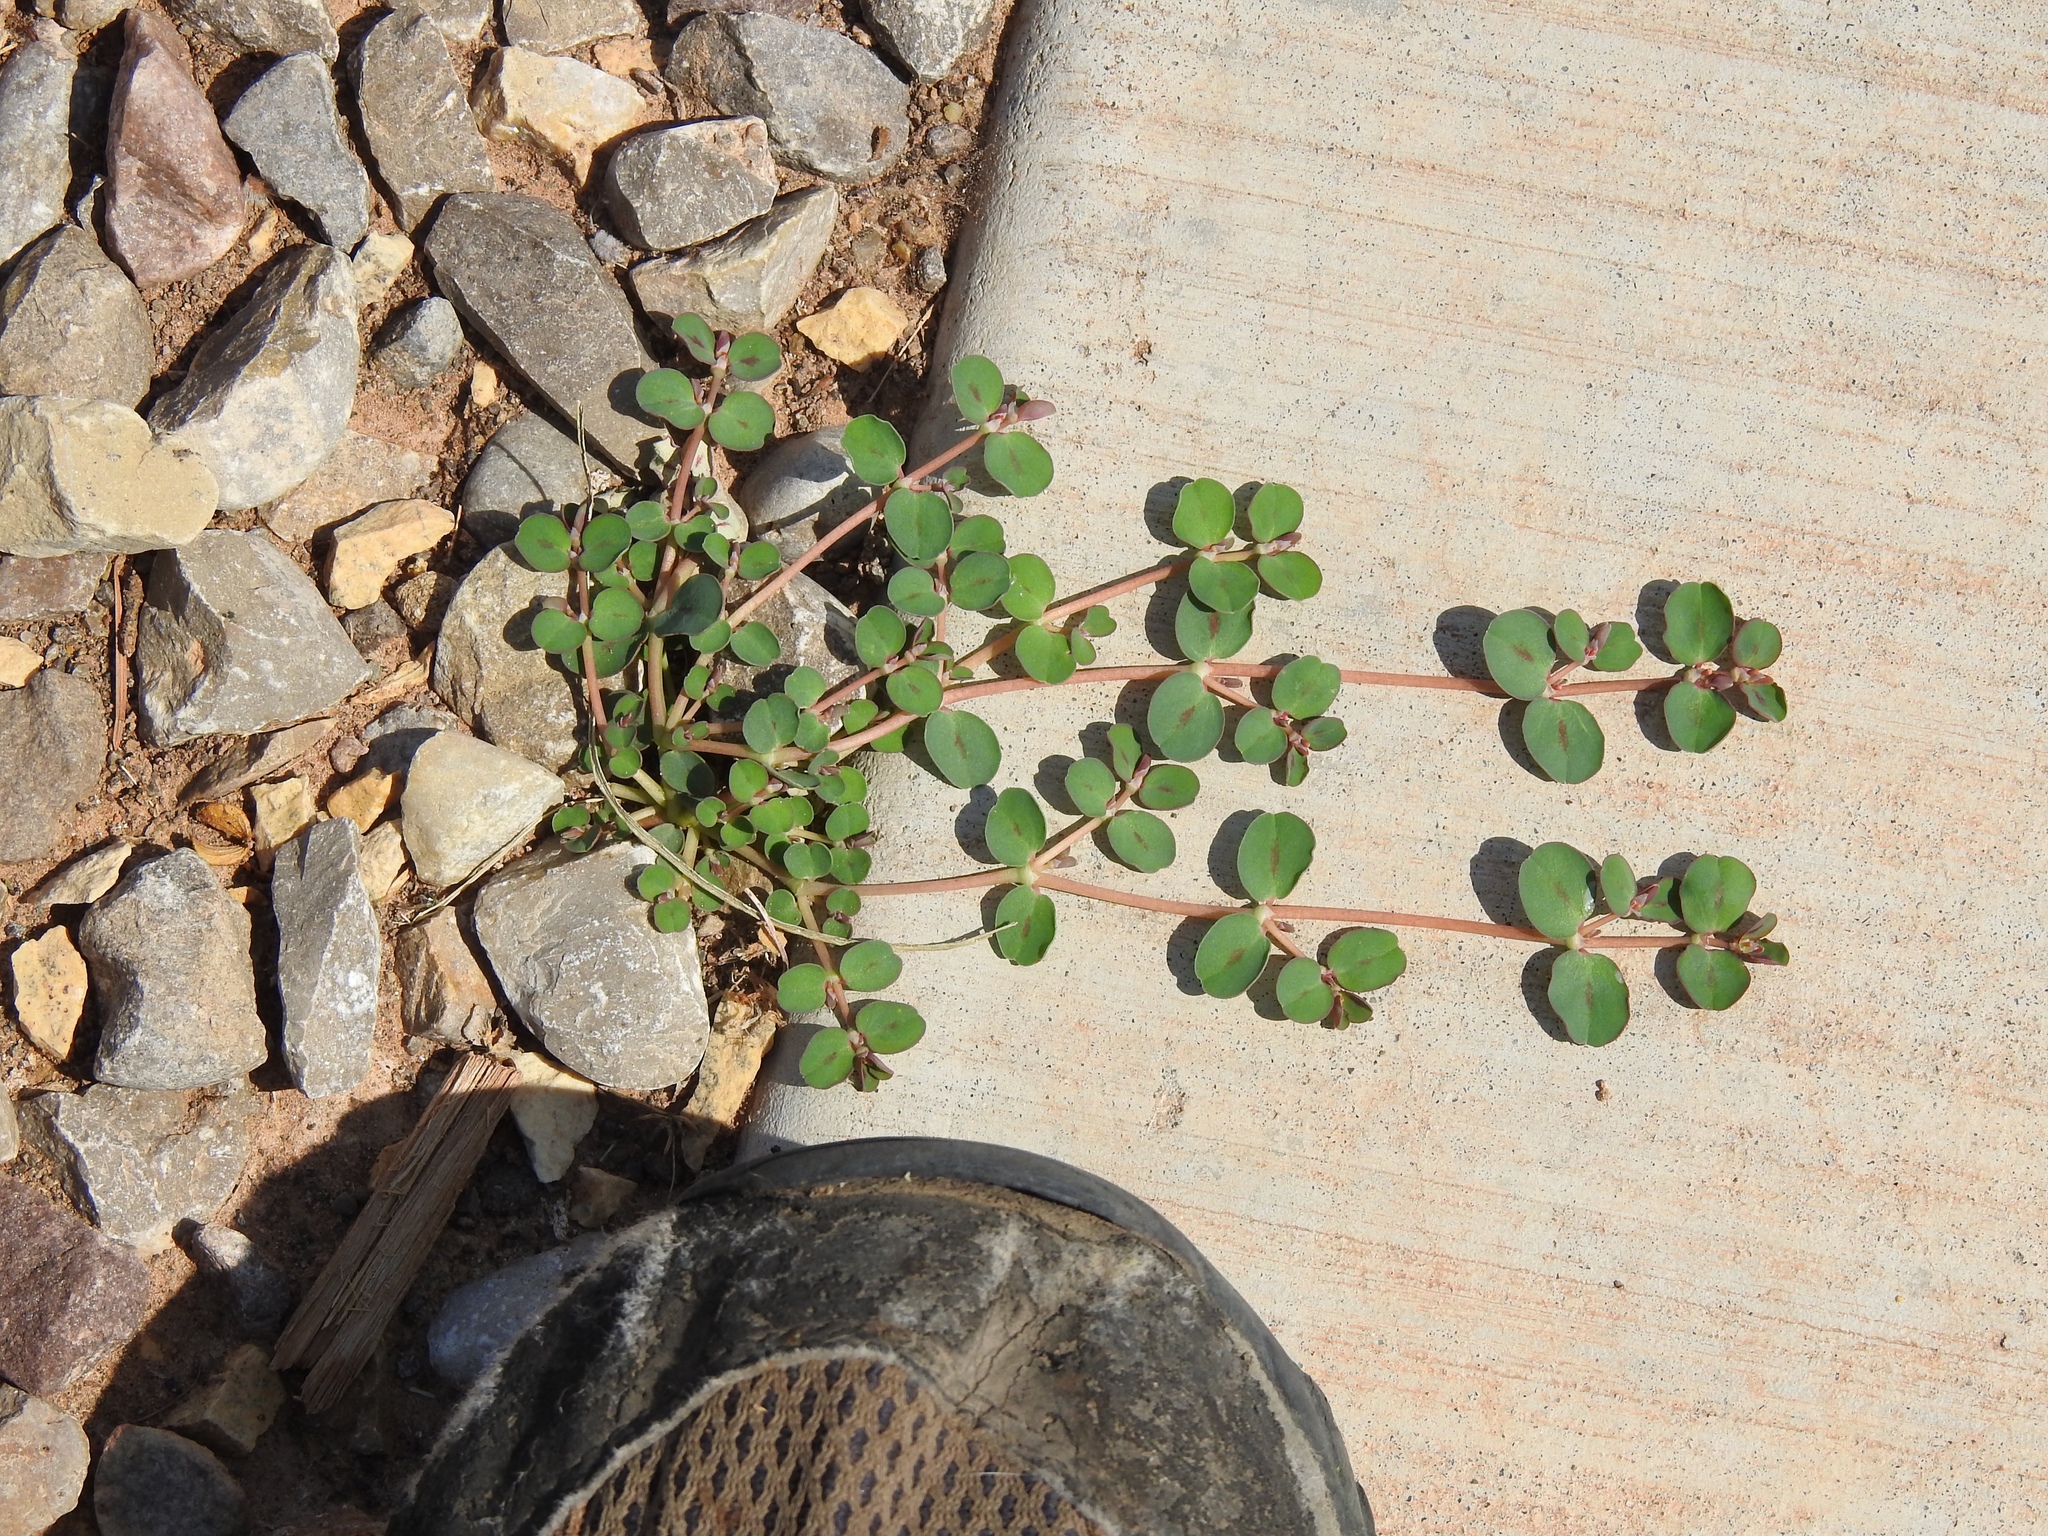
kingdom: Plantae
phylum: Tracheophyta
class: Magnoliopsida
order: Malpighiales
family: Euphorbiaceae
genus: Euphorbia
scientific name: Euphorbia albomarginata
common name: Whitemargin sandmat
